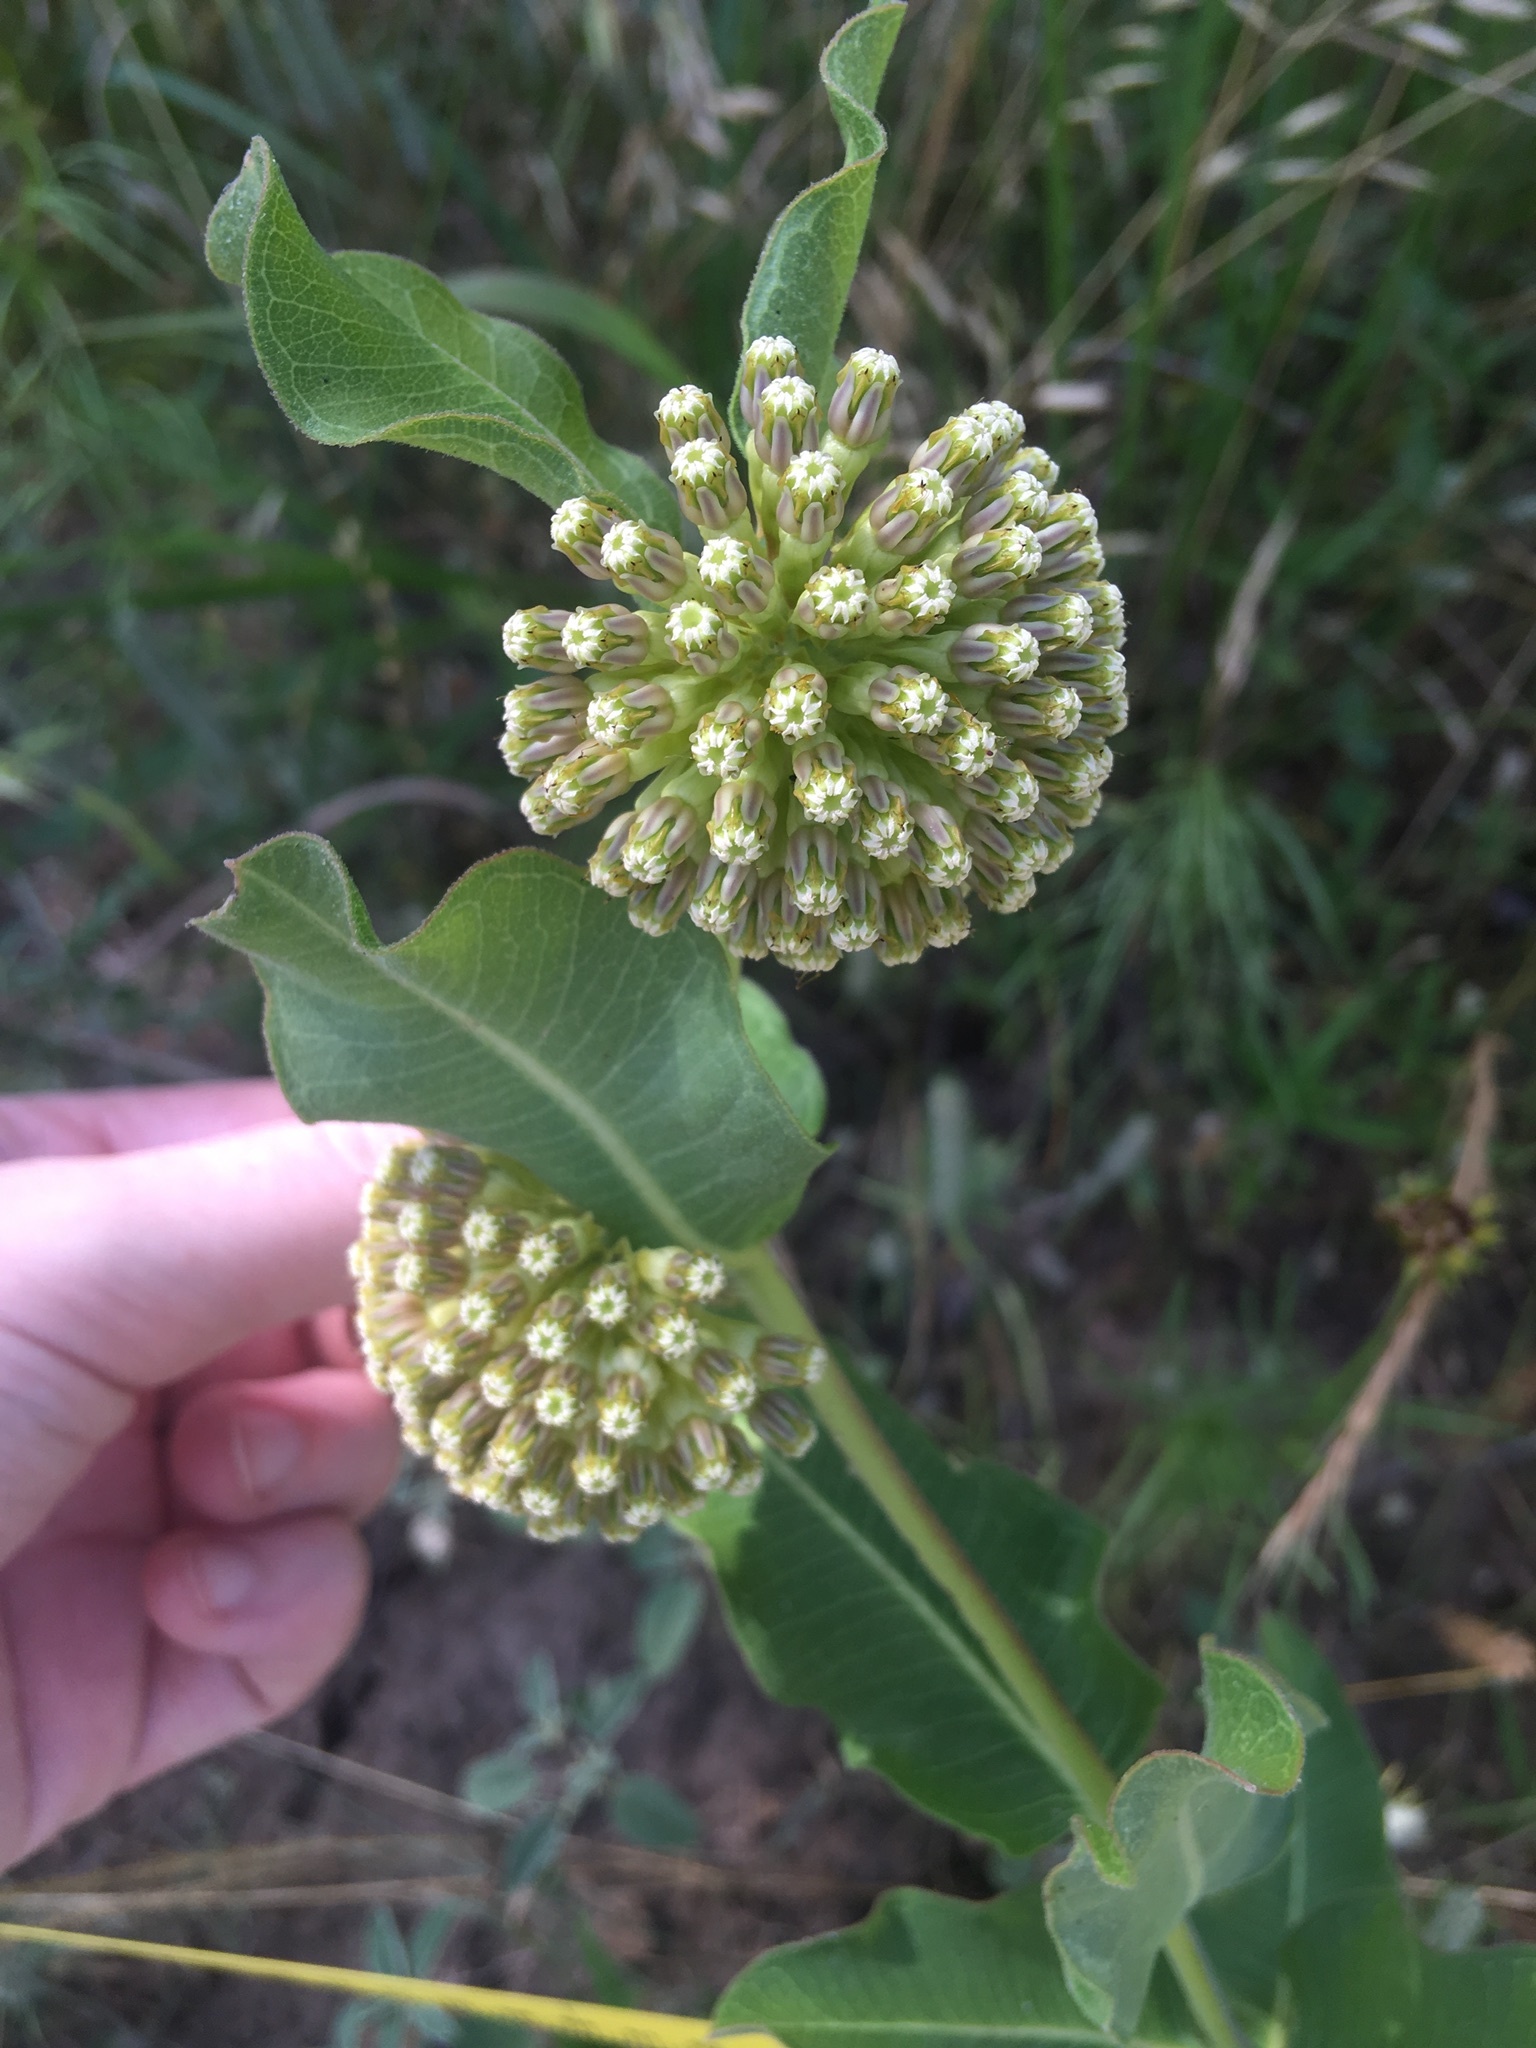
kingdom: Plantae
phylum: Tracheophyta
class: Magnoliopsida
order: Gentianales
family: Apocynaceae
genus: Asclepias
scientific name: Asclepias viridiflora
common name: Green comet milkweed
